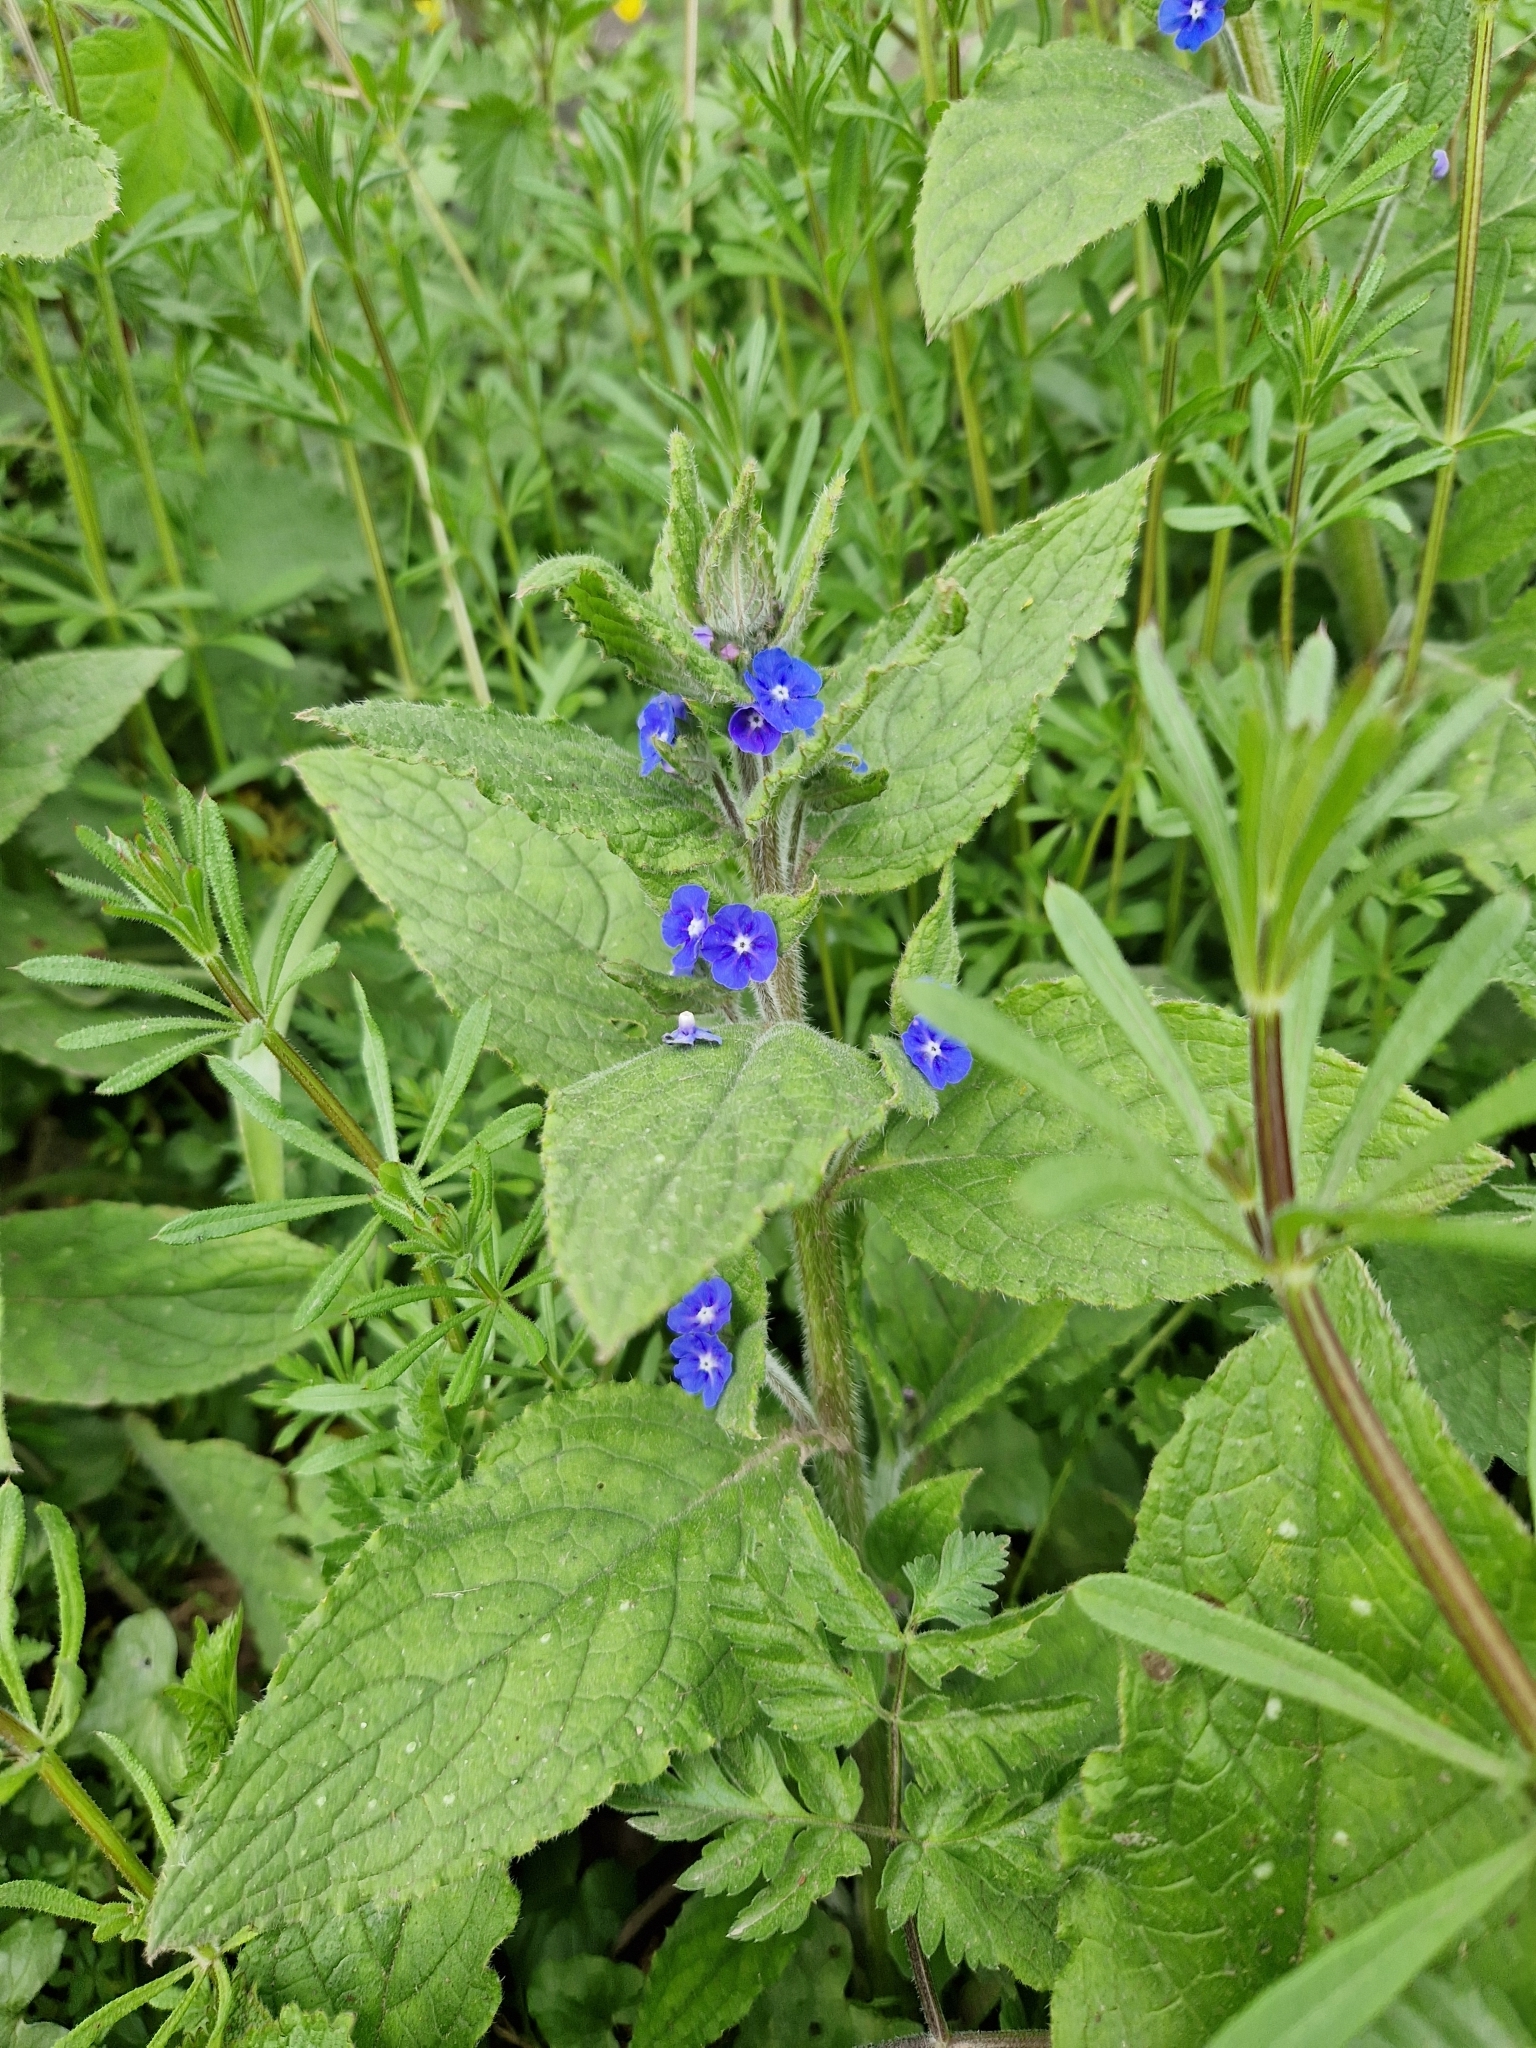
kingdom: Plantae
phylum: Tracheophyta
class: Magnoliopsida
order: Boraginales
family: Boraginaceae
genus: Pentaglottis
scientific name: Pentaglottis sempervirens
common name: Green alkanet
